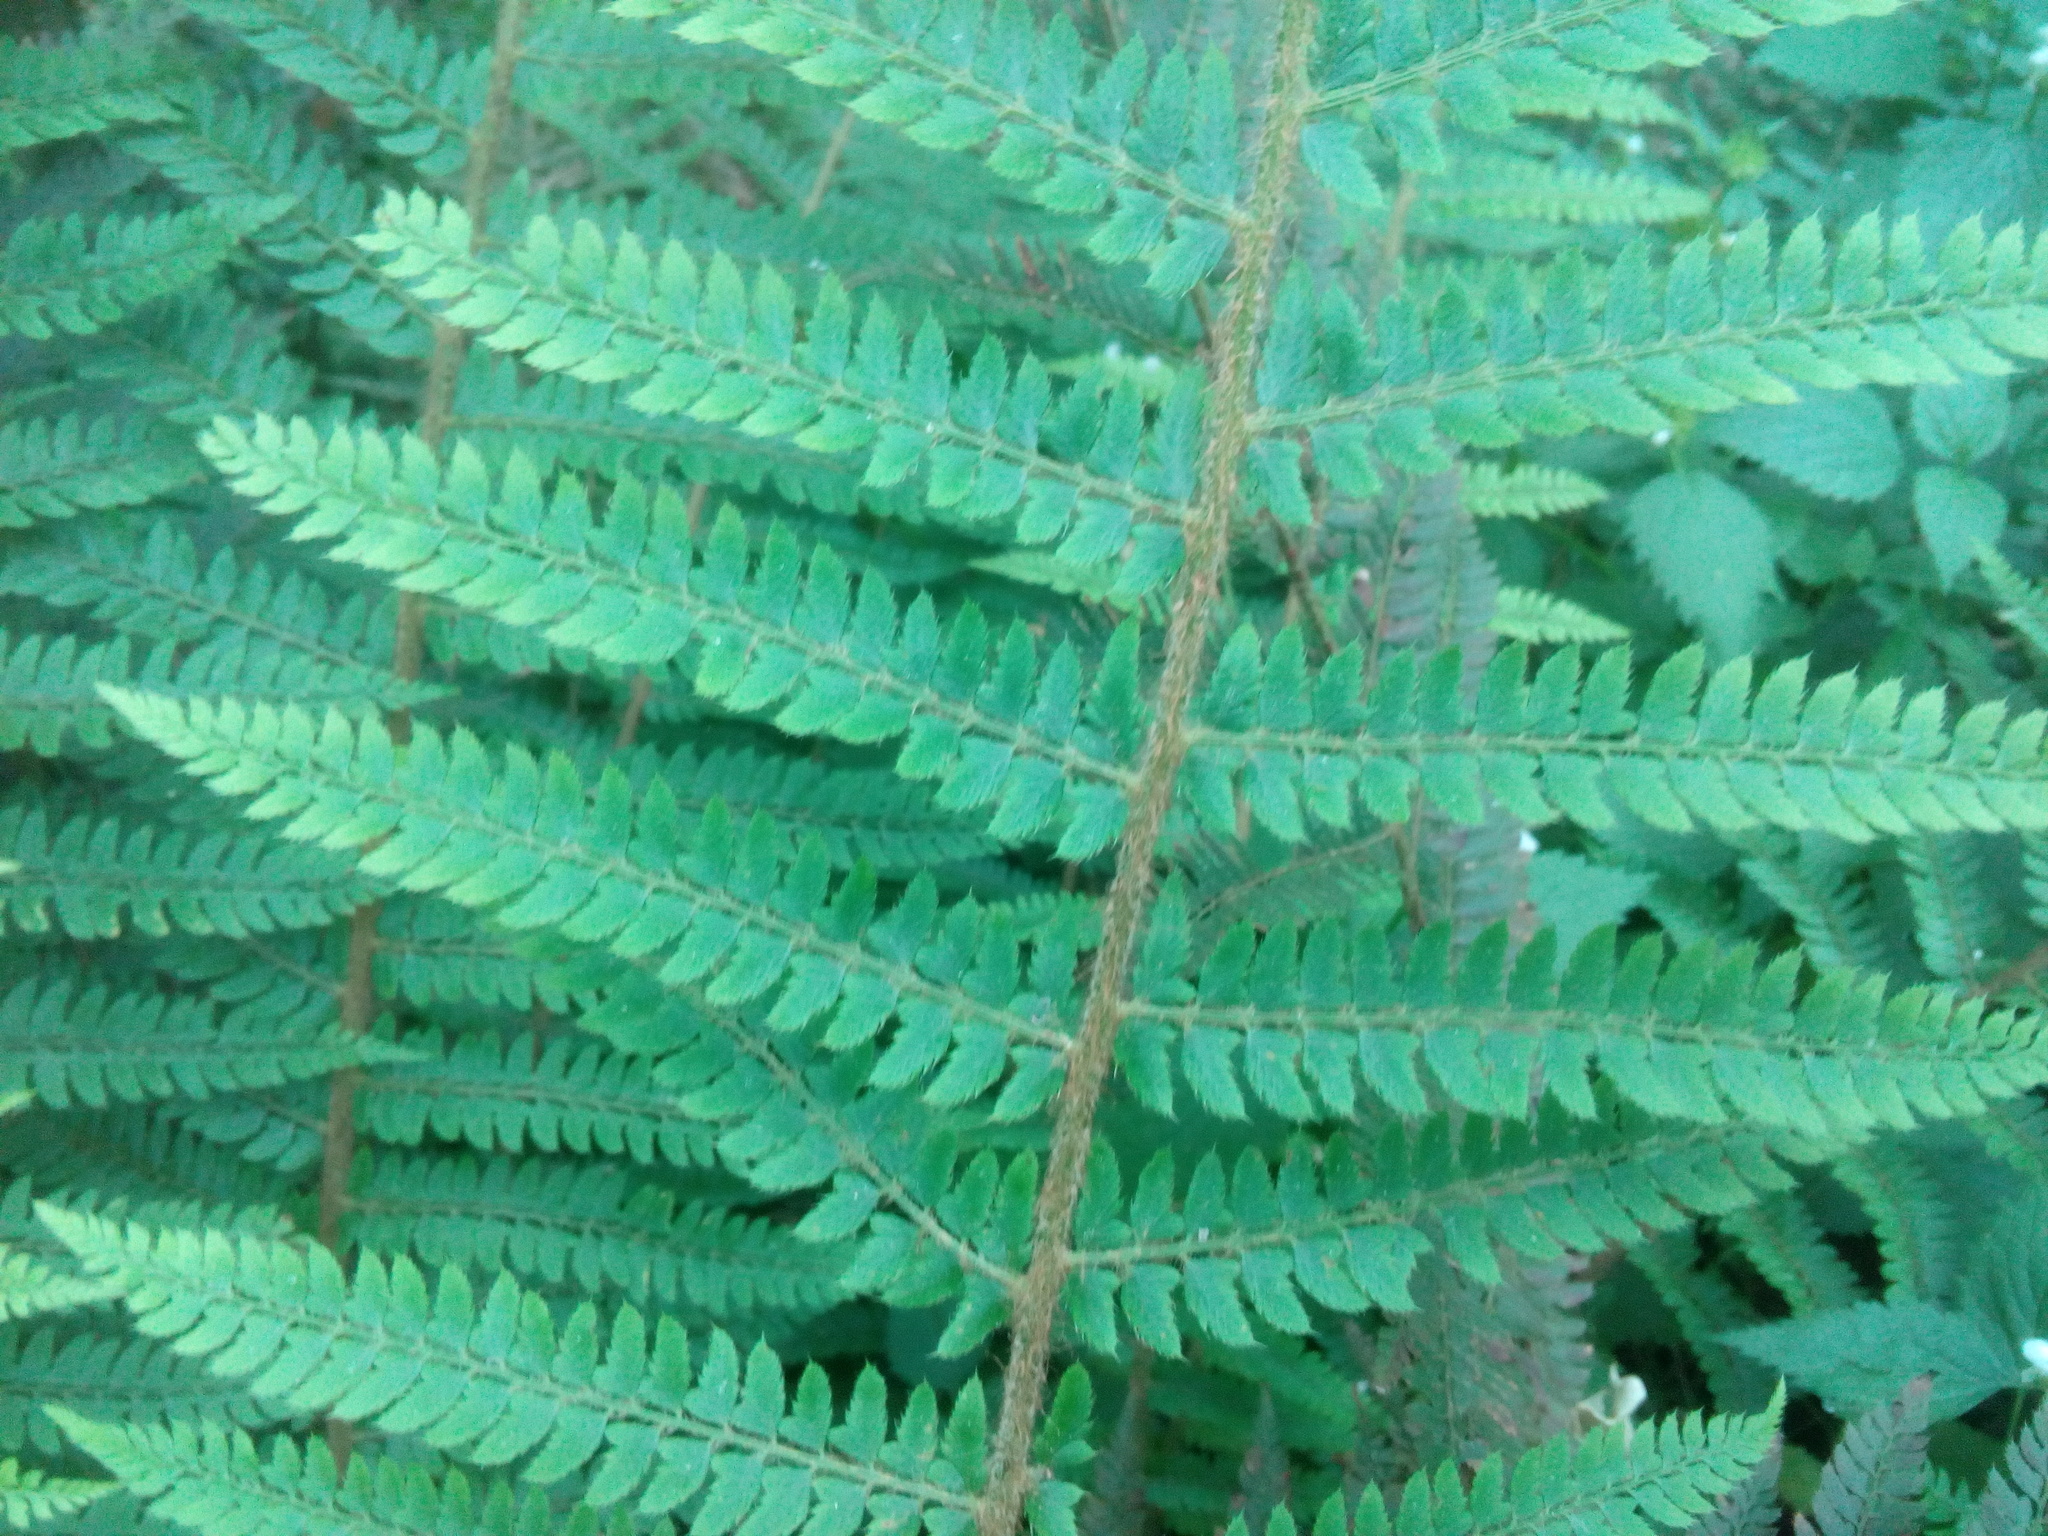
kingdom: Plantae
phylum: Tracheophyta
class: Polypodiopsida
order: Polypodiales
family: Dryopteridaceae
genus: Polystichum
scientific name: Polystichum setiferum
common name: Soft shield-fern
